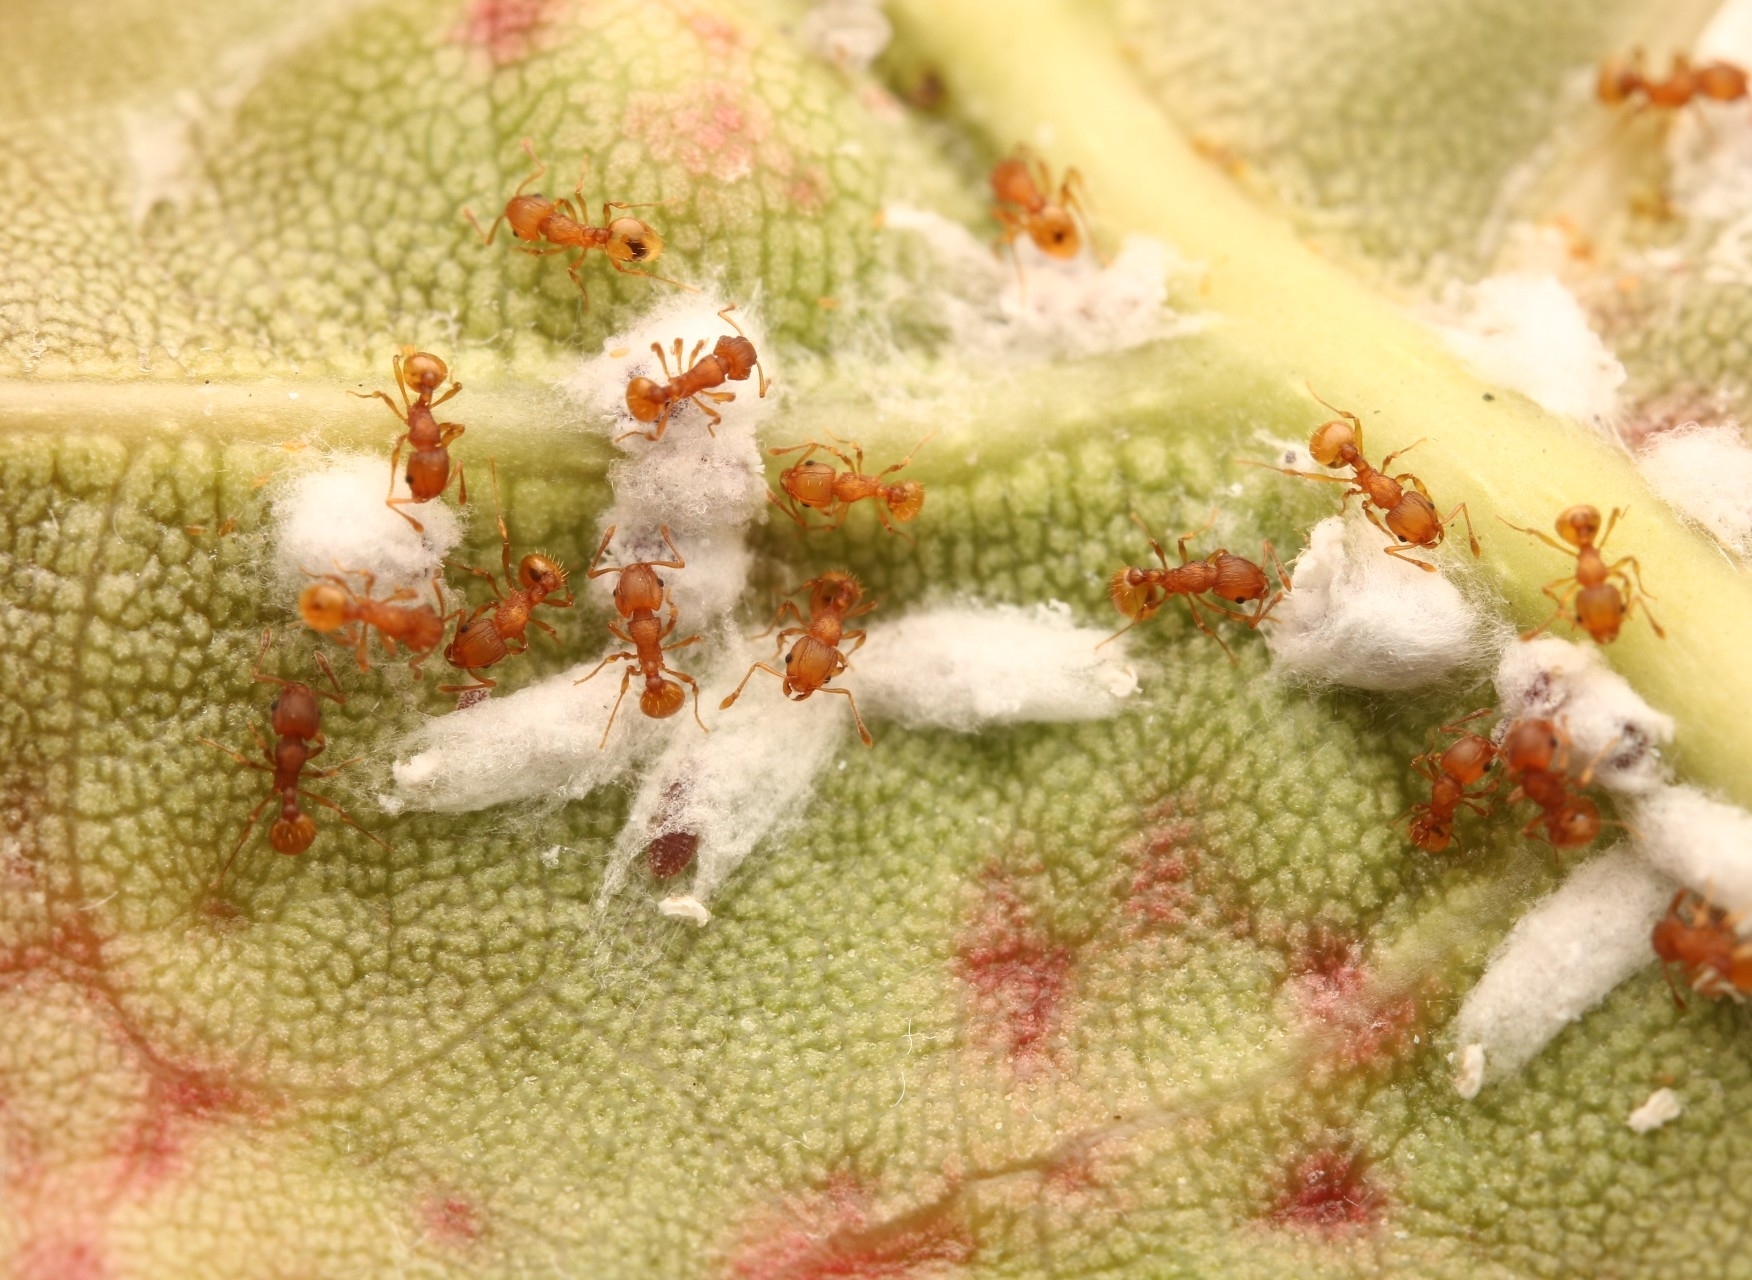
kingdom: Animalia
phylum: Arthropoda
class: Insecta
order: Hymenoptera
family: Formicidae
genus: Wasmannia
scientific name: Wasmannia auropunctata
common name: Little fire ant
